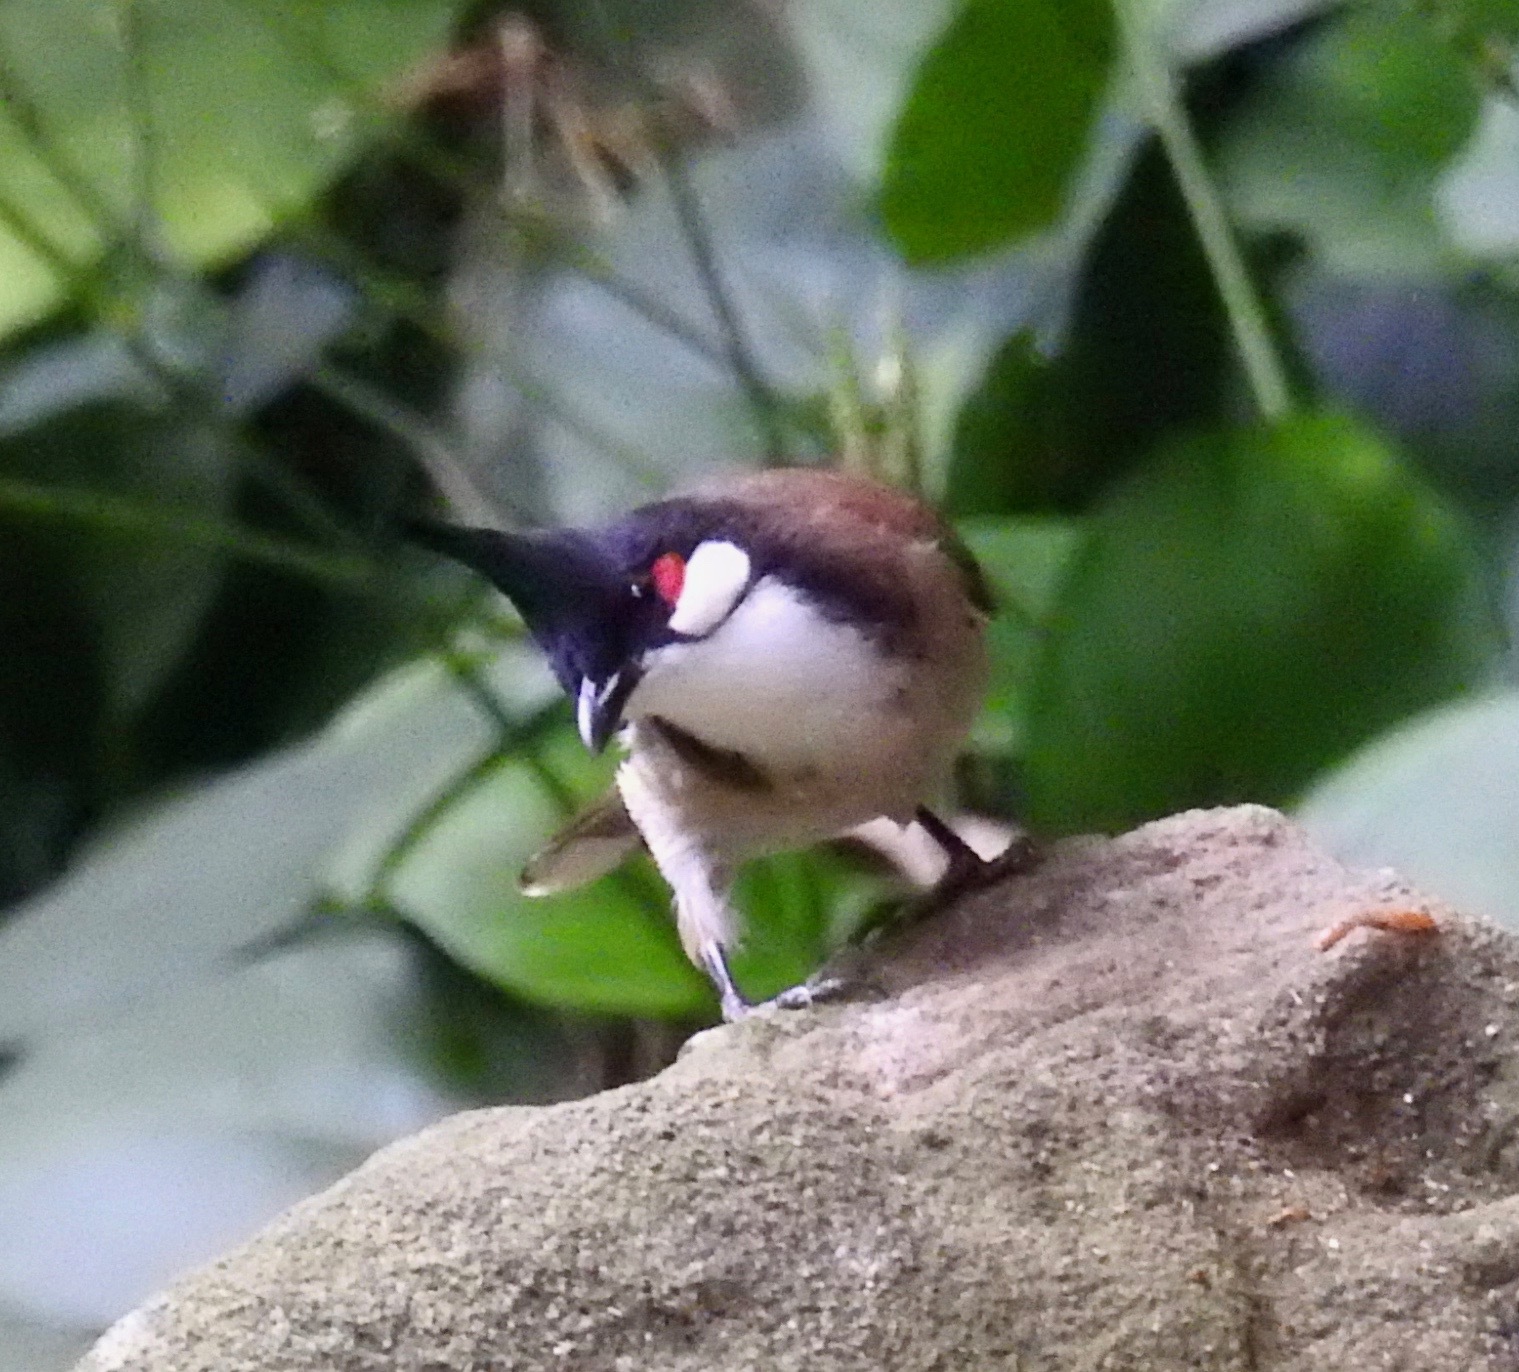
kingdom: Animalia
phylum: Chordata
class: Aves
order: Passeriformes
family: Pycnonotidae
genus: Pycnonotus
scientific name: Pycnonotus jocosus
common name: Red-whiskered bulbul
